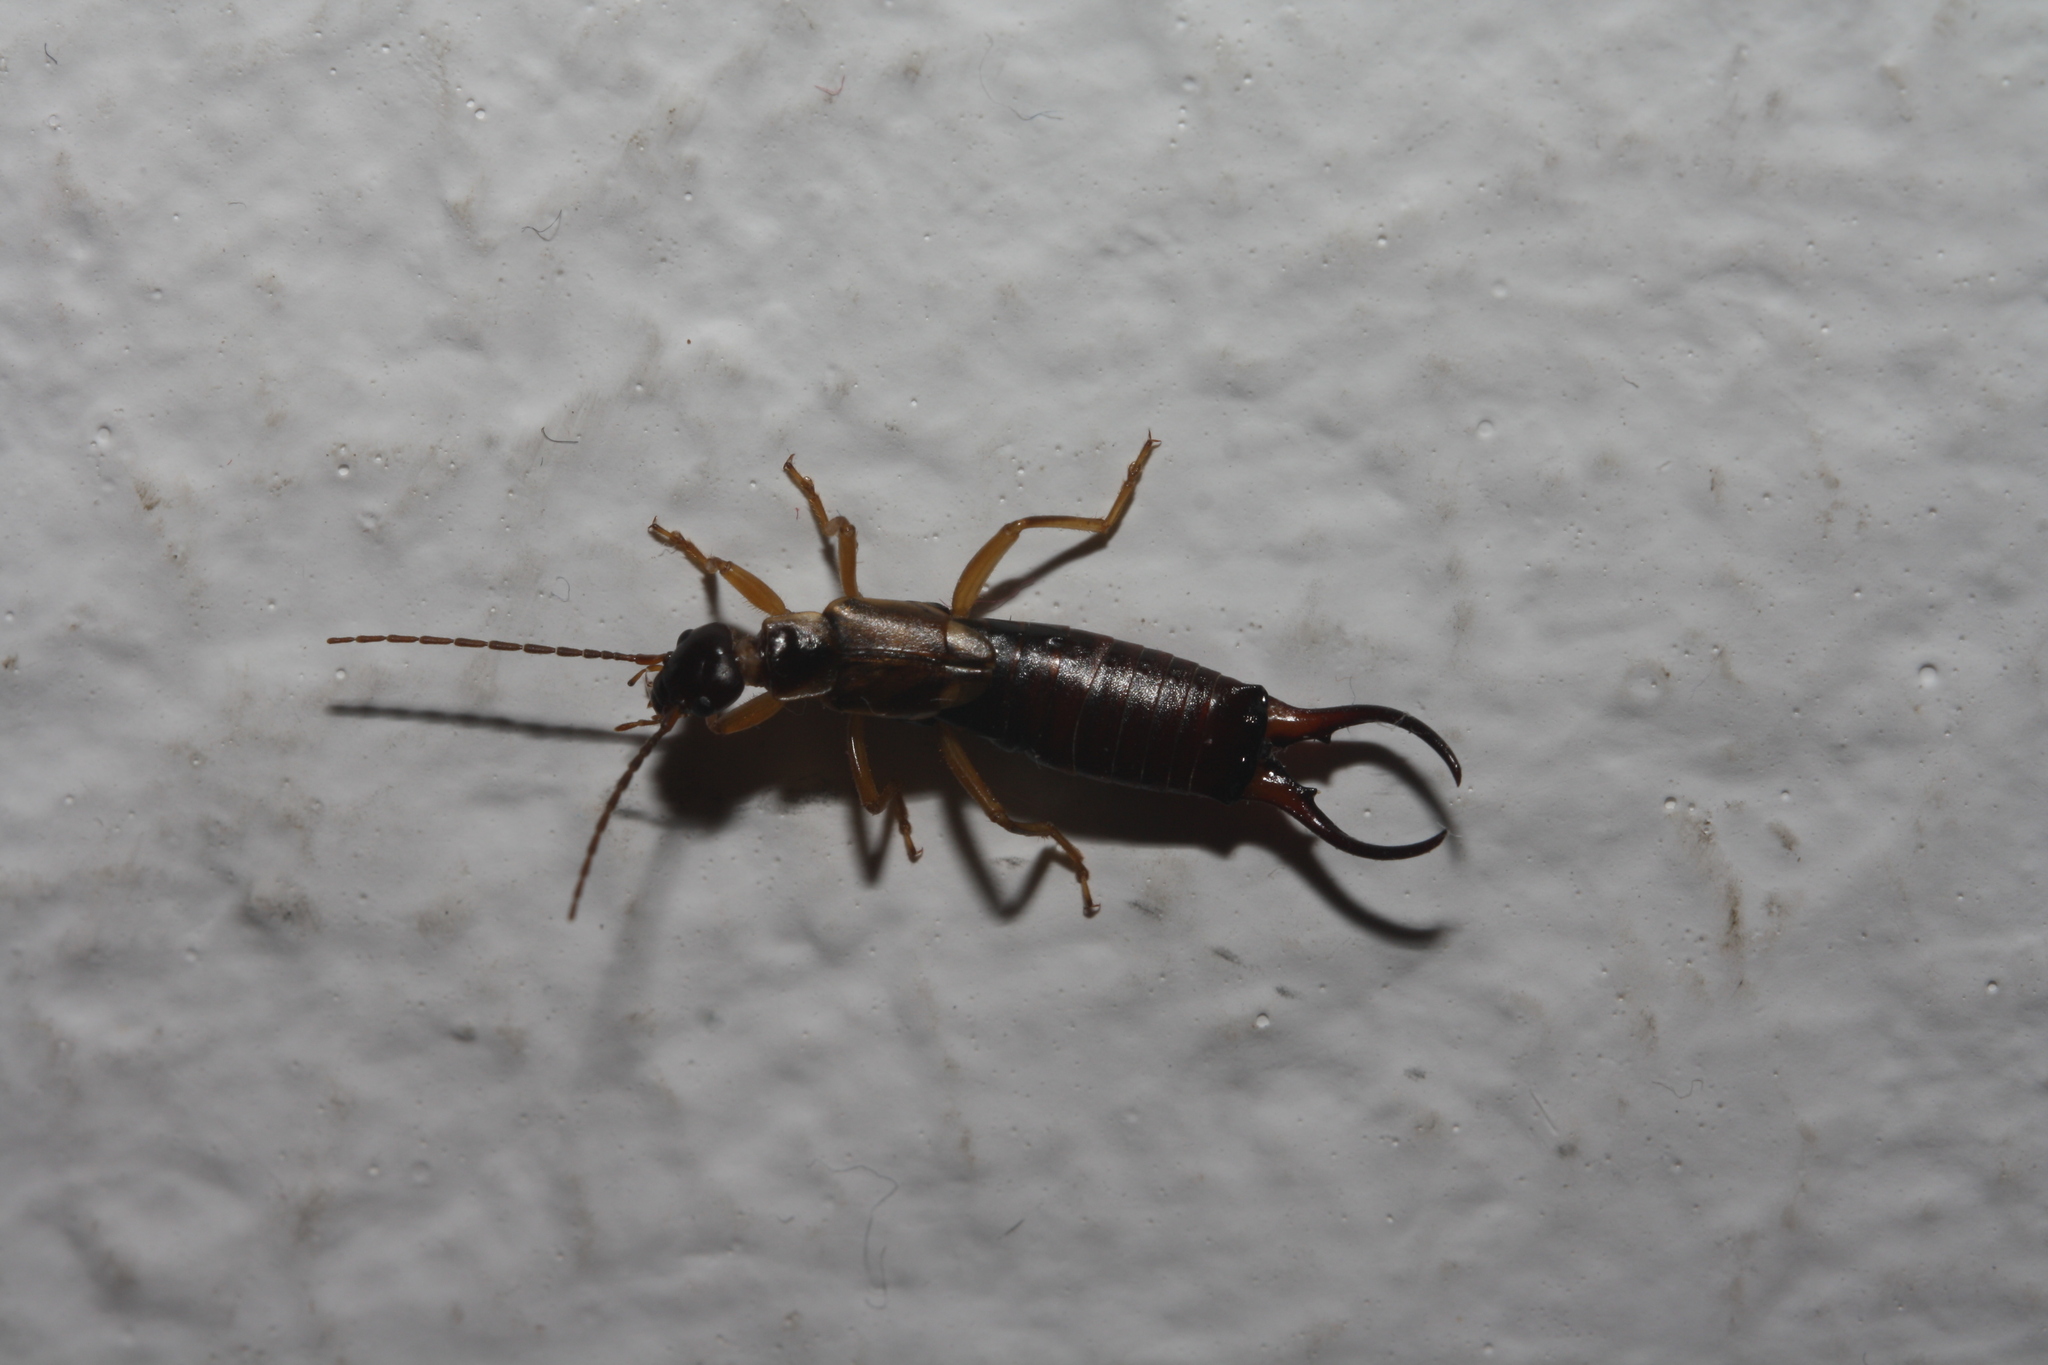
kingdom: Animalia
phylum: Arthropoda
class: Insecta
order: Dermaptera
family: Forficulidae
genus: Forficula
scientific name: Forficula
